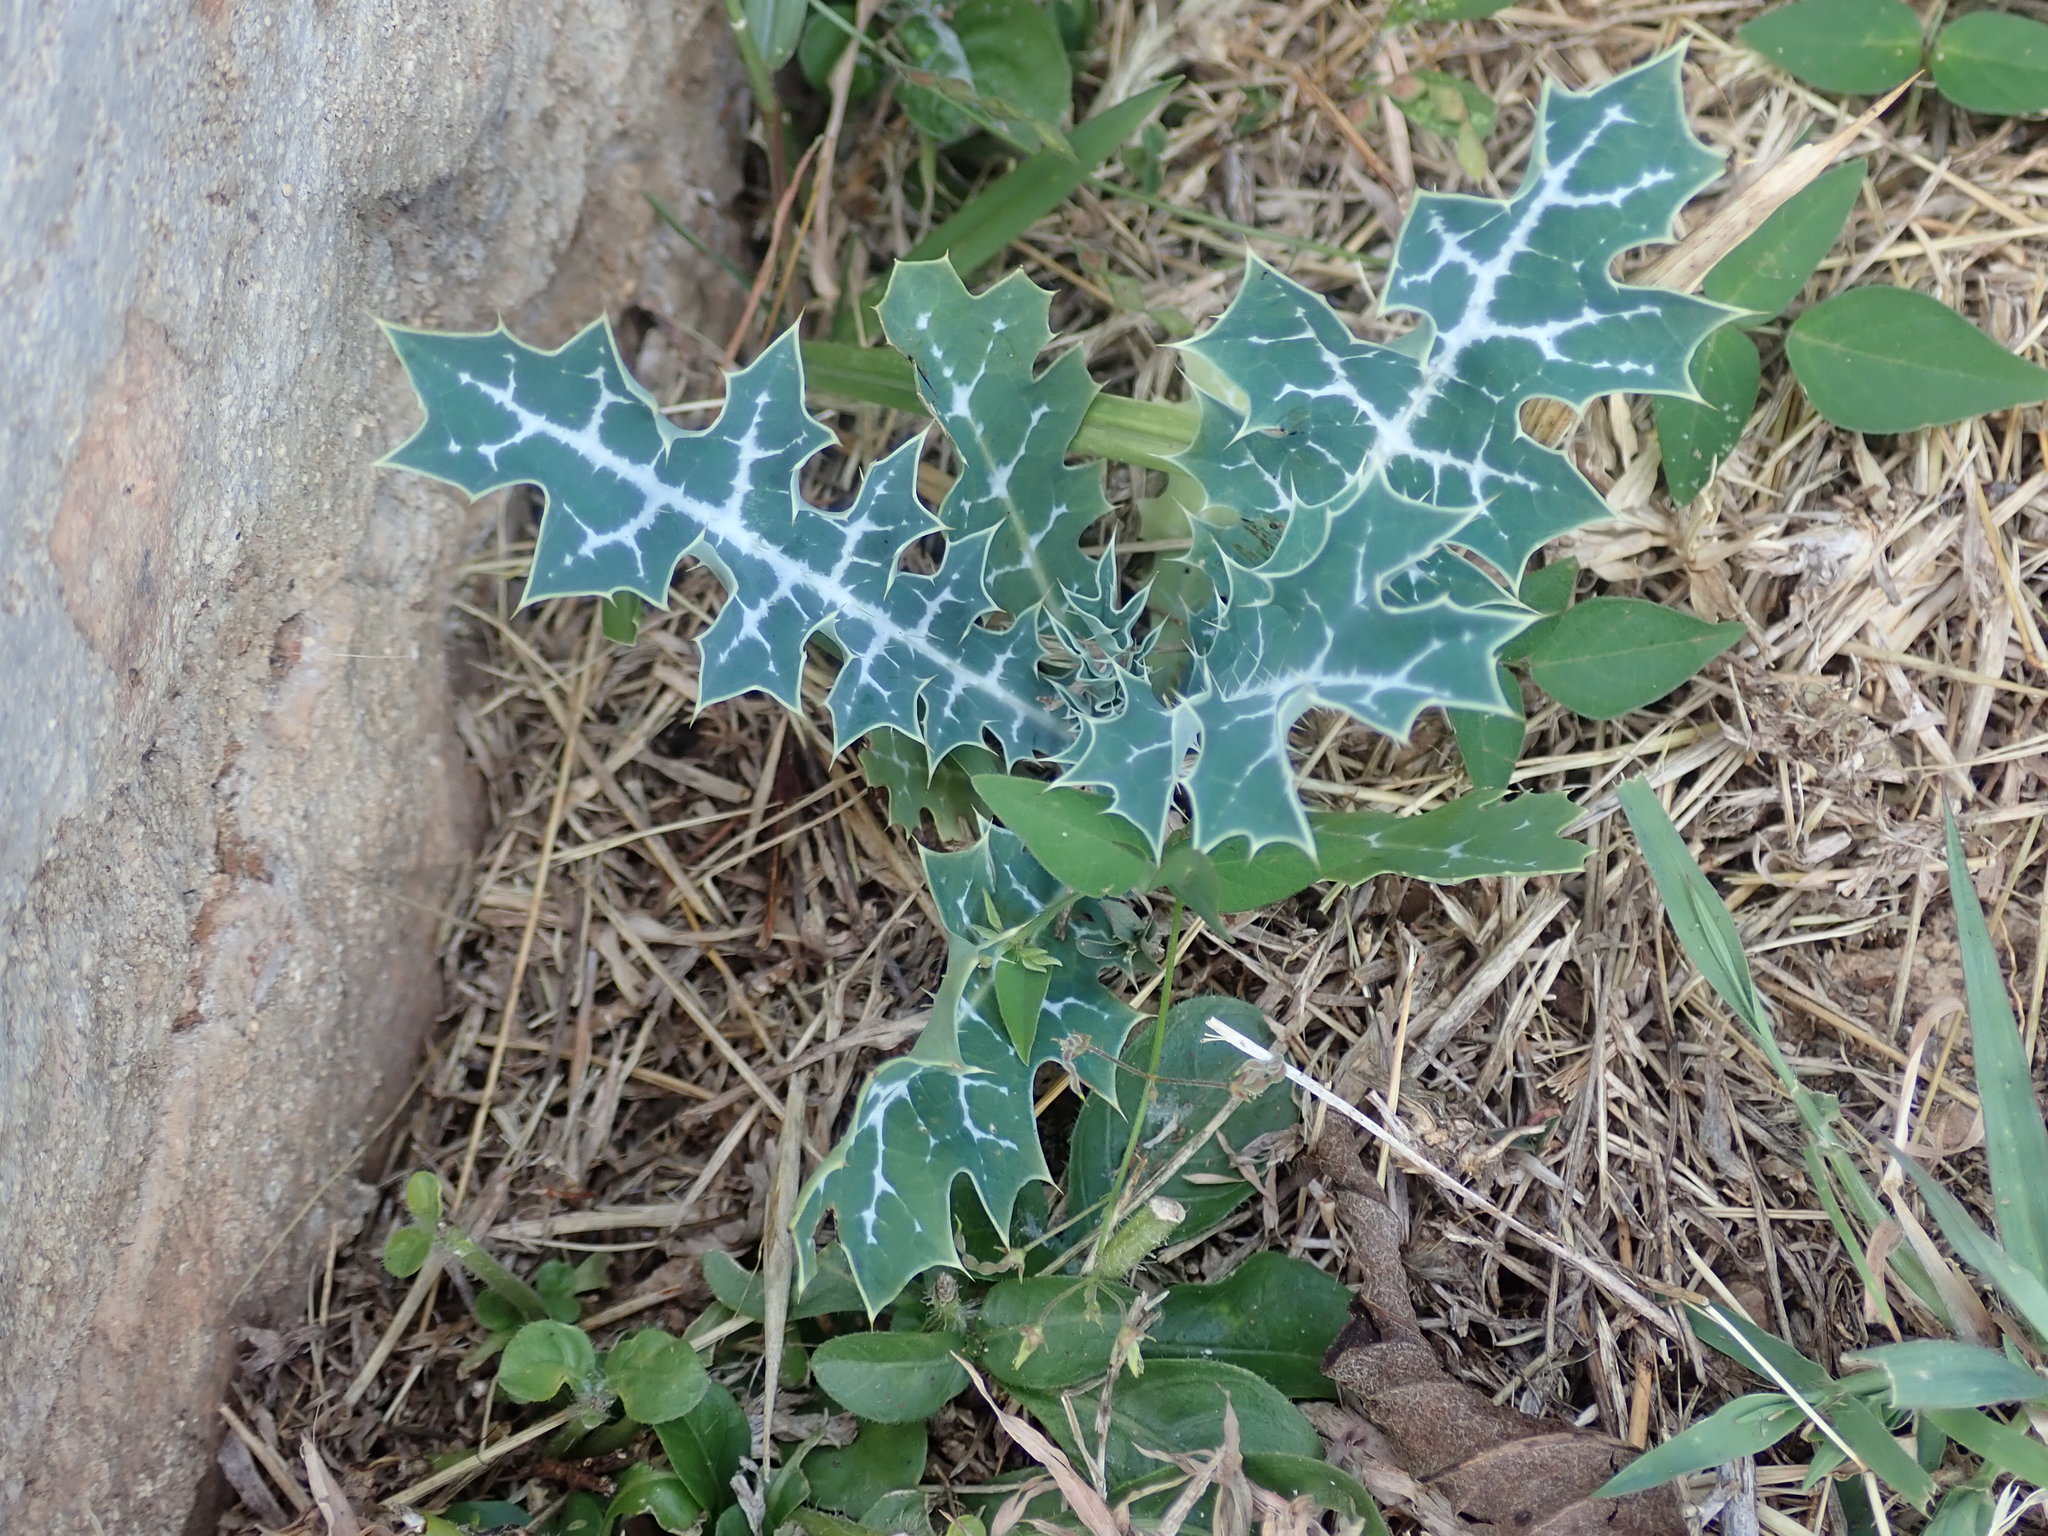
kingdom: Plantae
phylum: Tracheophyta
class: Magnoliopsida
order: Ranunculales
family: Papaveraceae
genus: Argemone
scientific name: Argemone mexicana
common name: Mexican poppy
